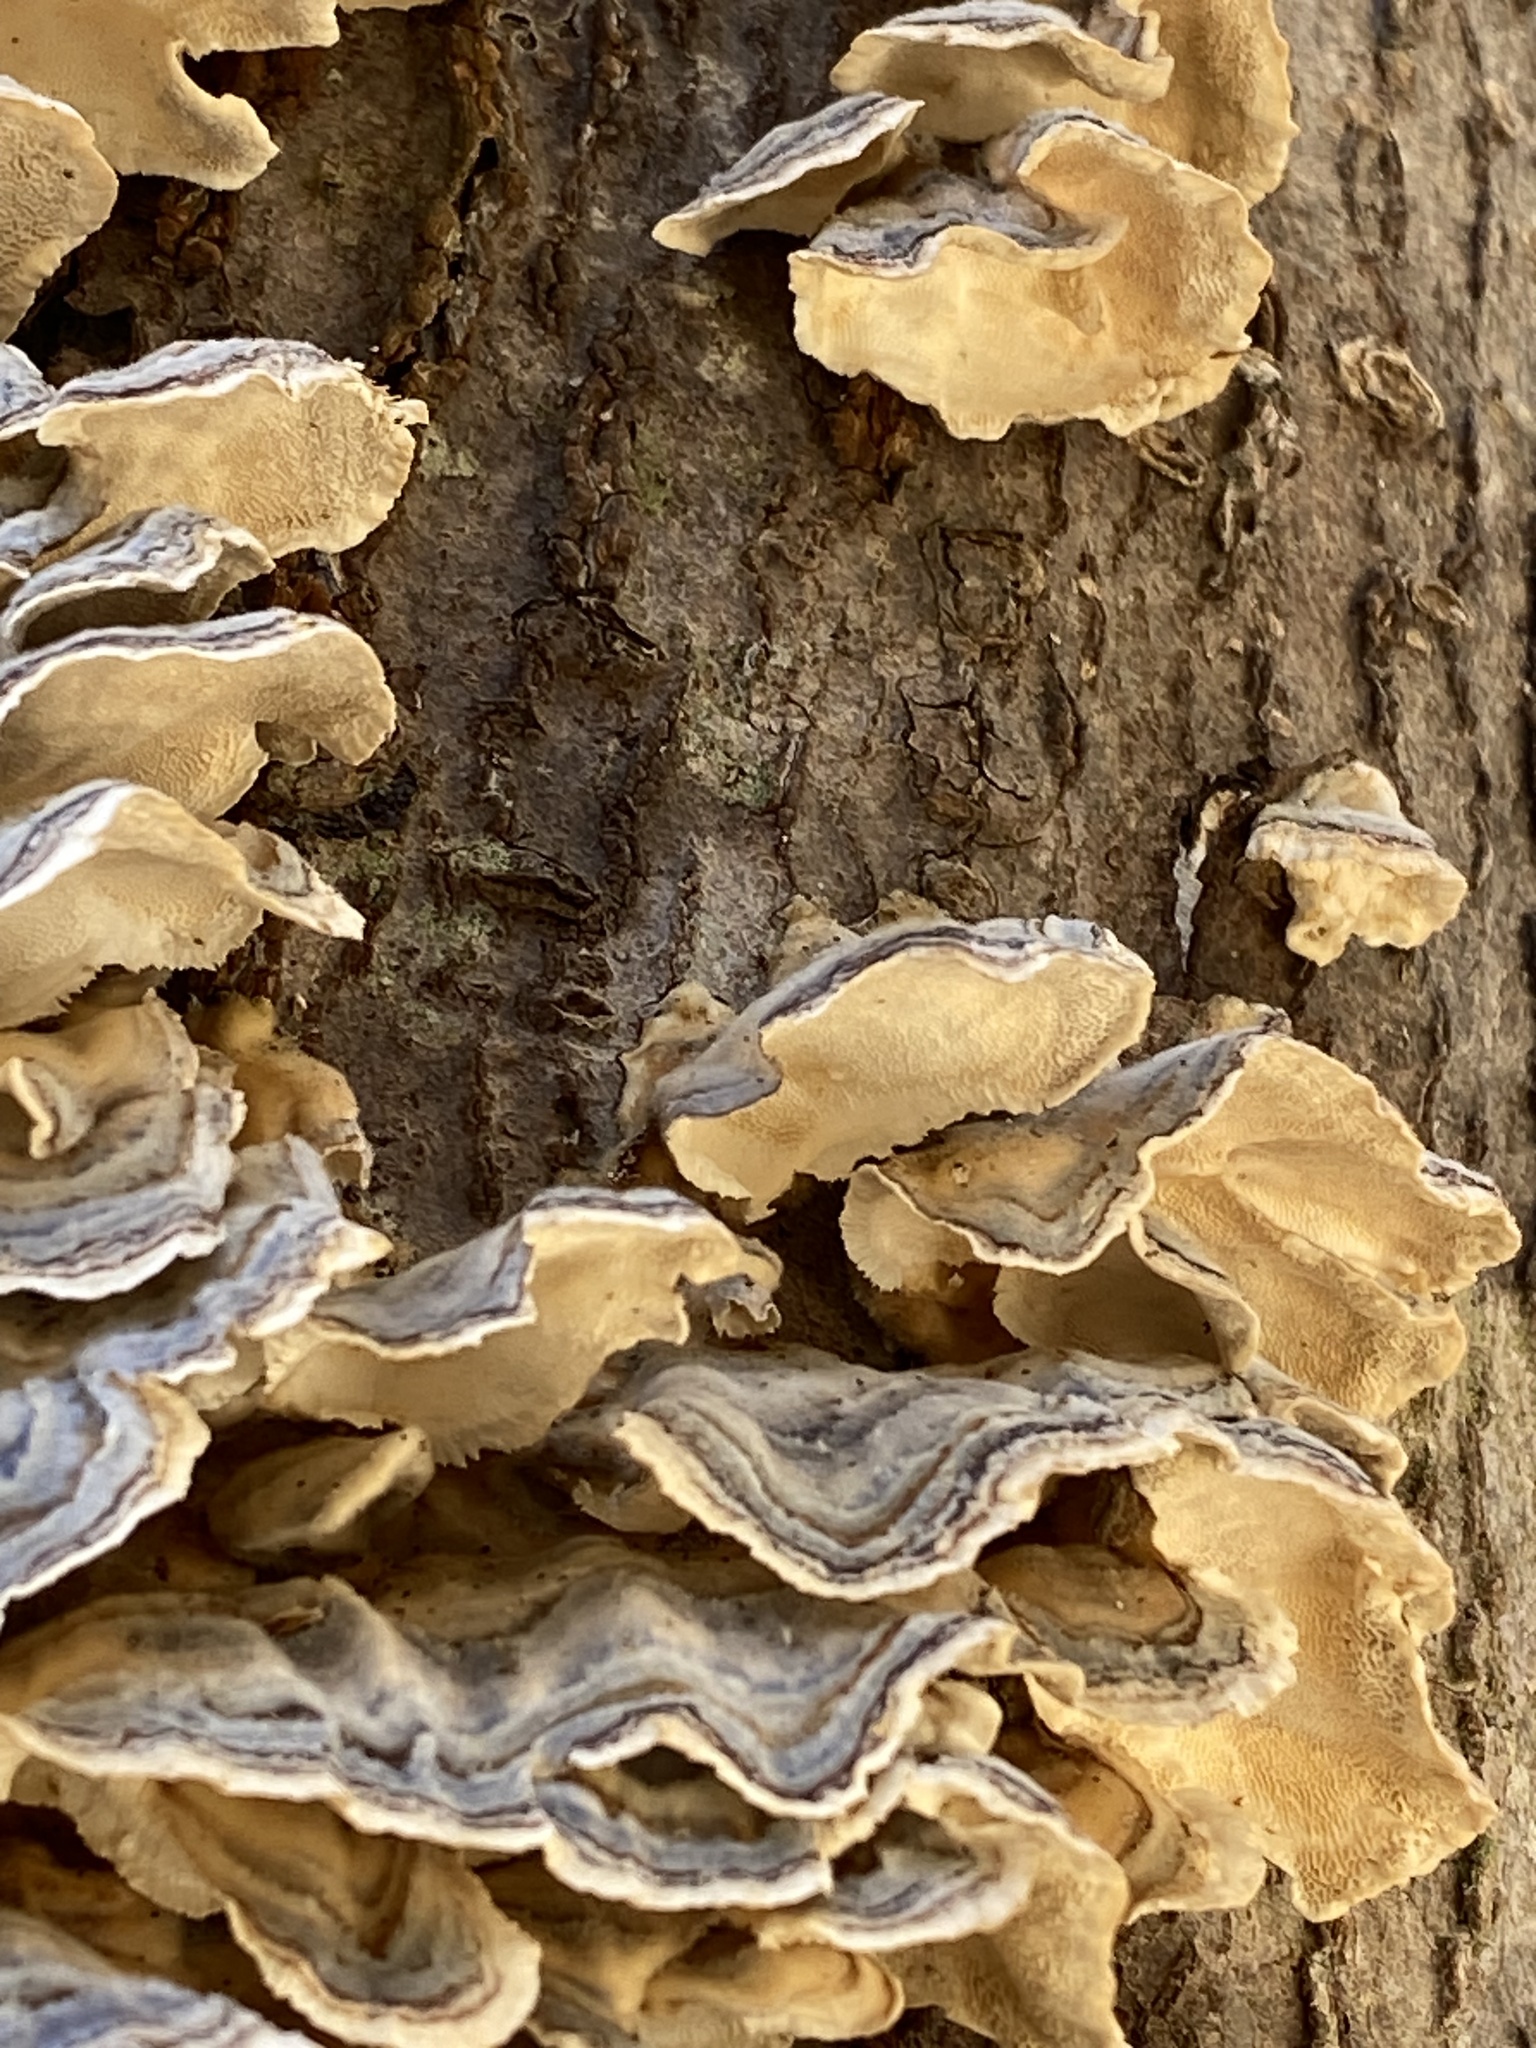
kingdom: Fungi
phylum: Basidiomycota
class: Agaricomycetes
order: Polyporales
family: Polyporaceae
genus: Trametes
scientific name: Trametes versicolor
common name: Turkeytail
